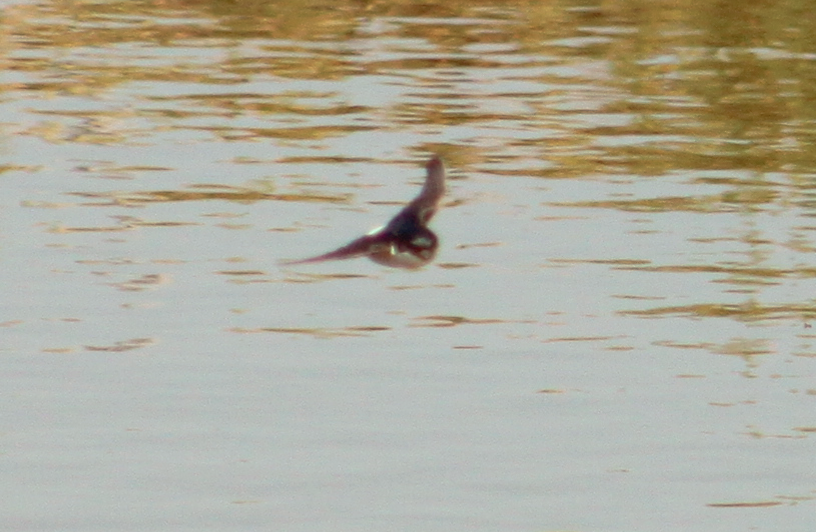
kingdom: Animalia
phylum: Chordata
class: Aves
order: Passeriformes
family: Hirundinidae
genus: Delichon
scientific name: Delichon urbicum
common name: Common house martin
